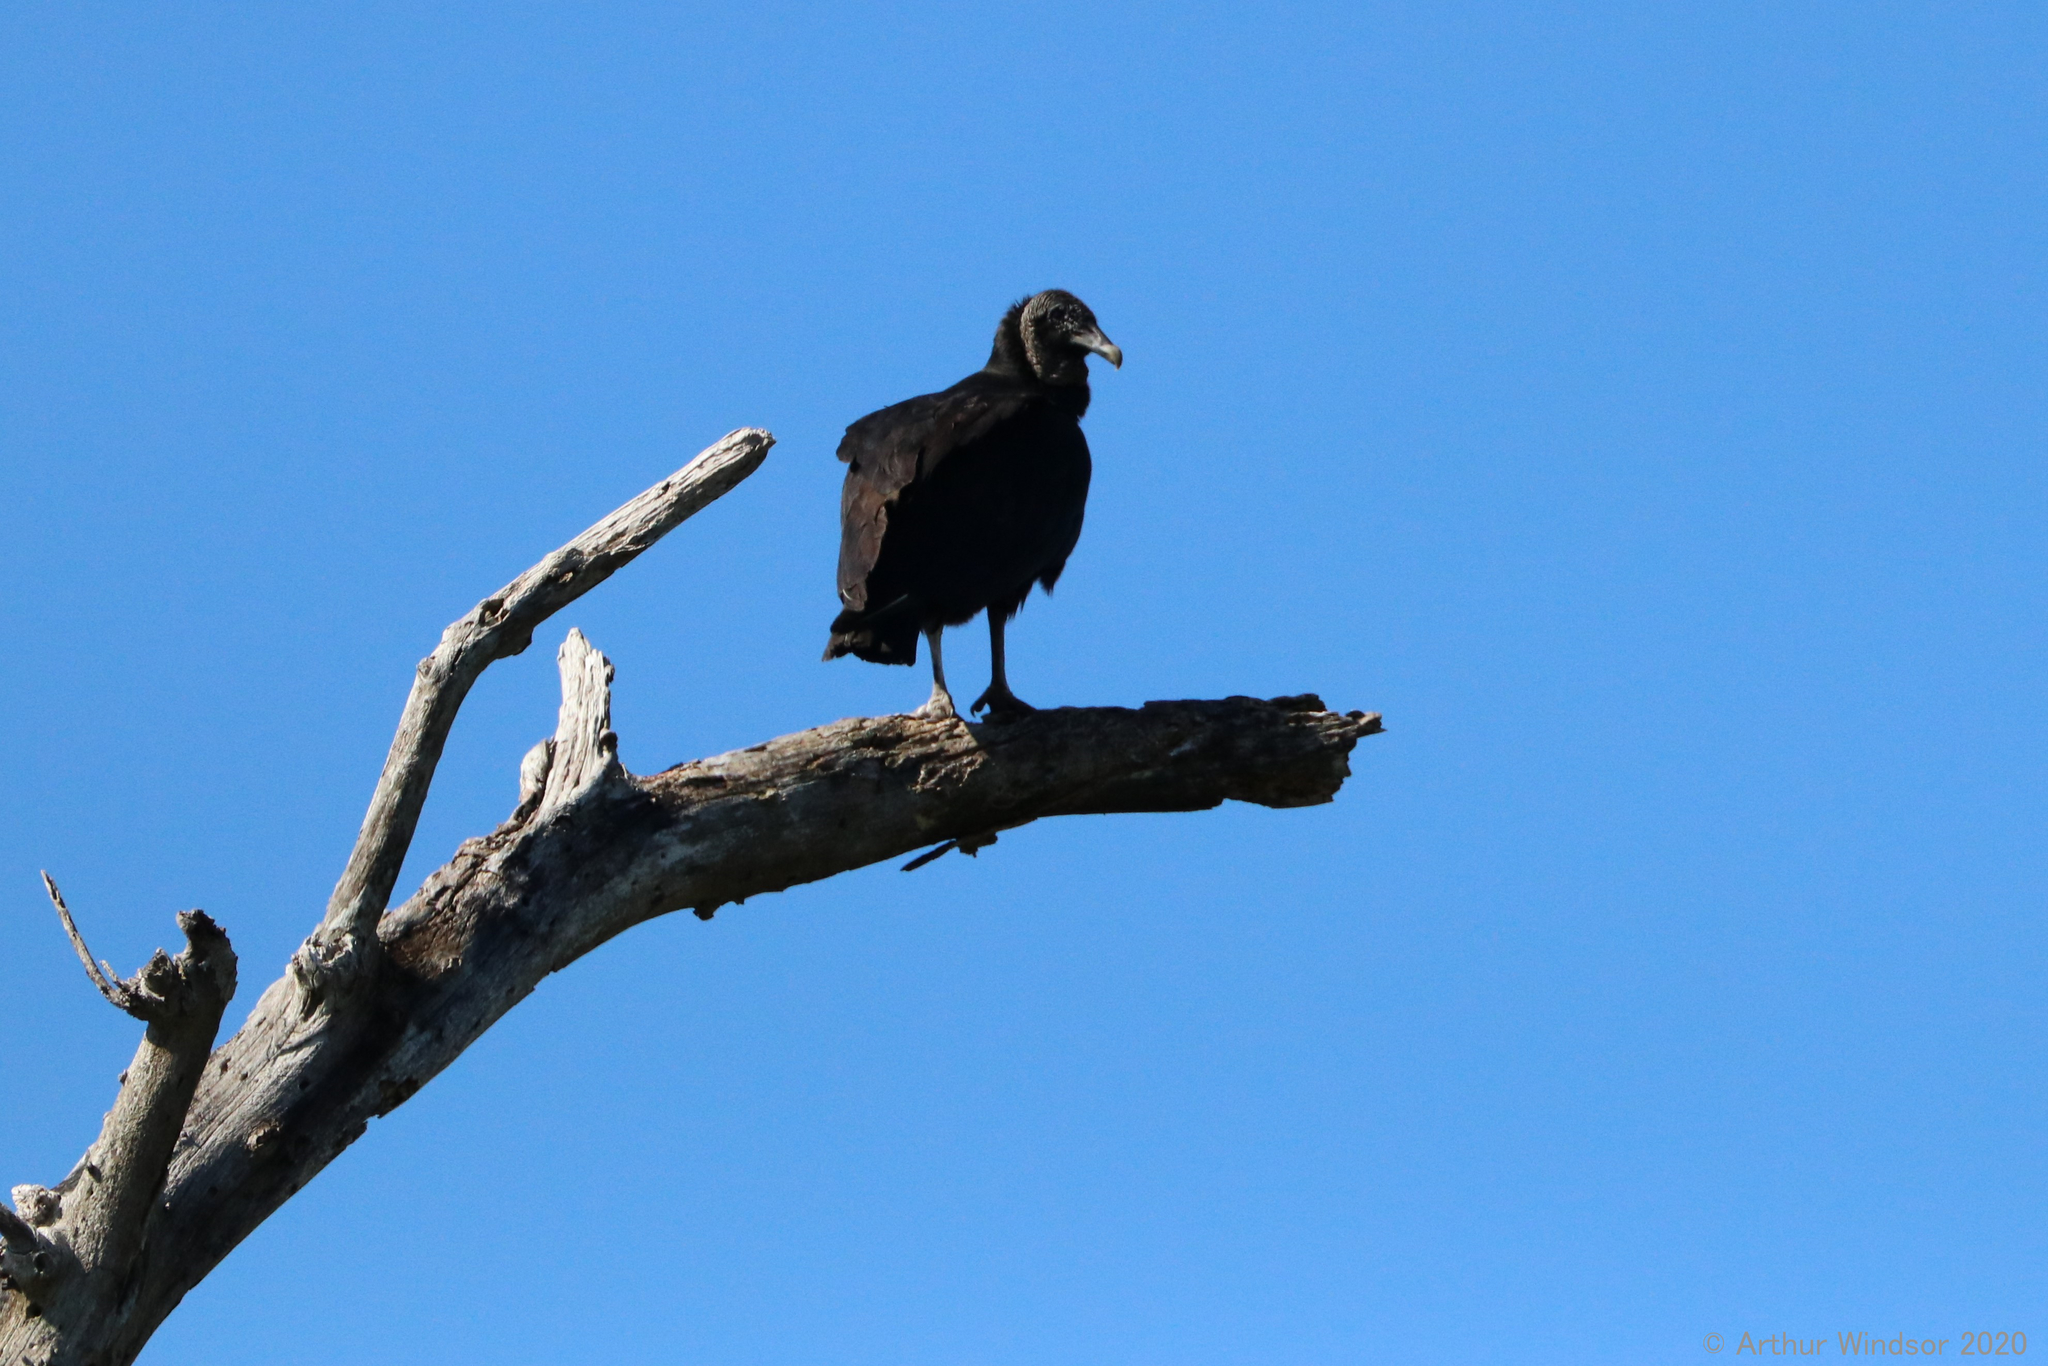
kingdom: Animalia
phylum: Chordata
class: Aves
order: Accipitriformes
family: Cathartidae
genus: Coragyps
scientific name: Coragyps atratus
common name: Black vulture
